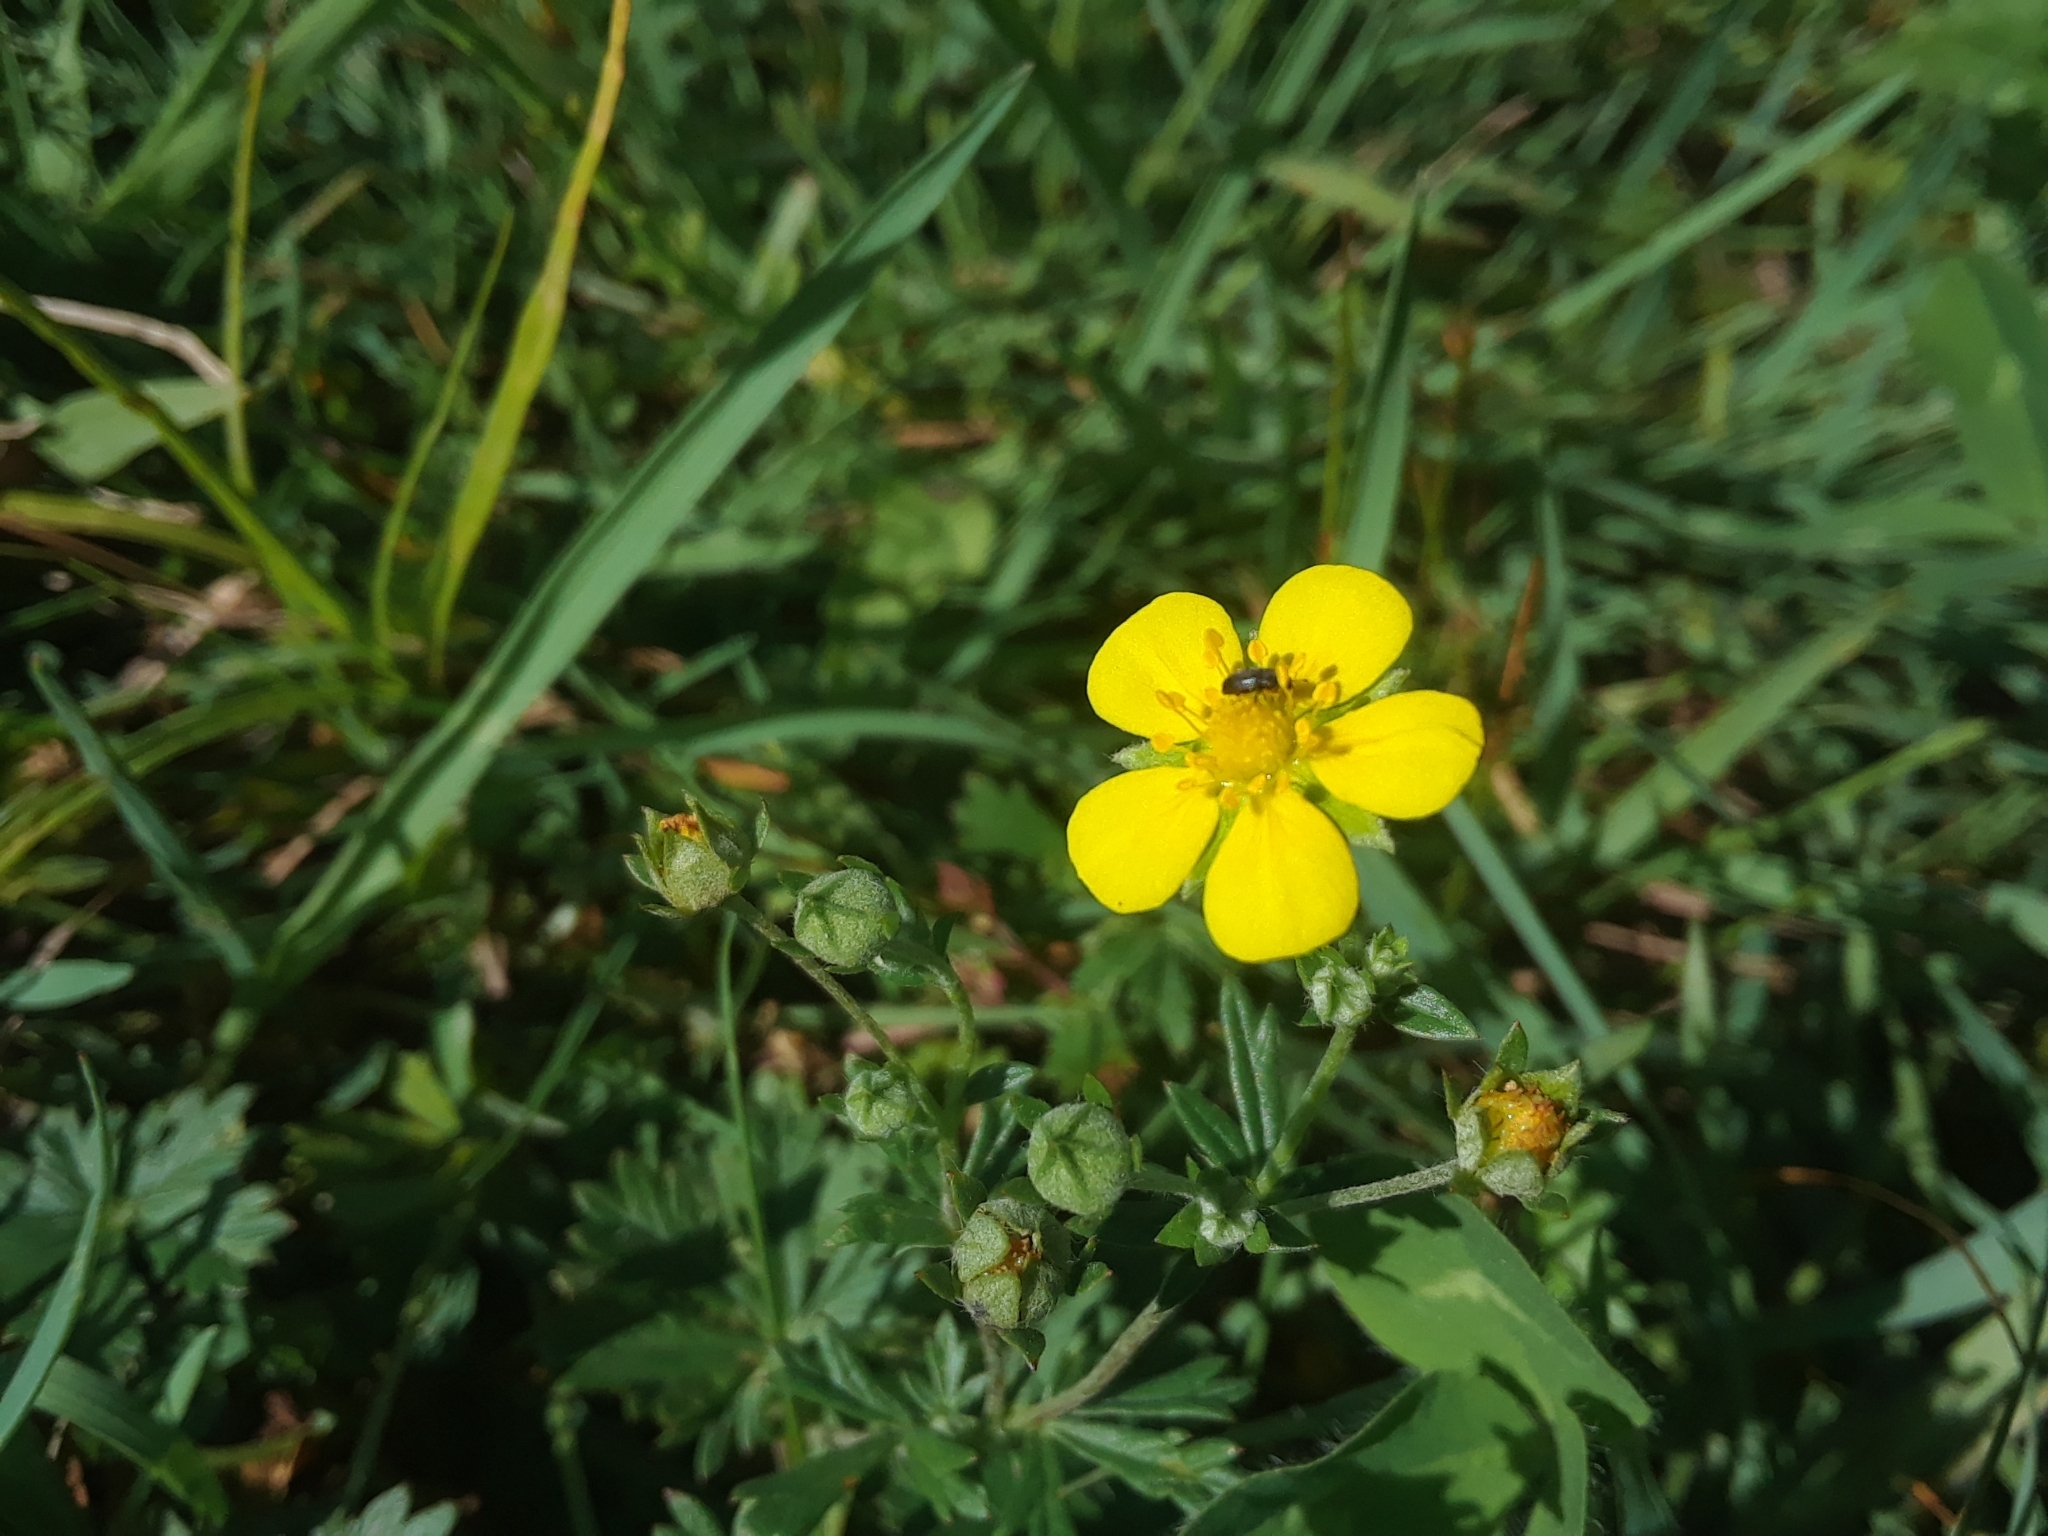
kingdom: Plantae
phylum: Tracheophyta
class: Magnoliopsida
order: Rosales
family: Rosaceae
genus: Potentilla
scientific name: Potentilla argentea
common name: Hoary cinquefoil
